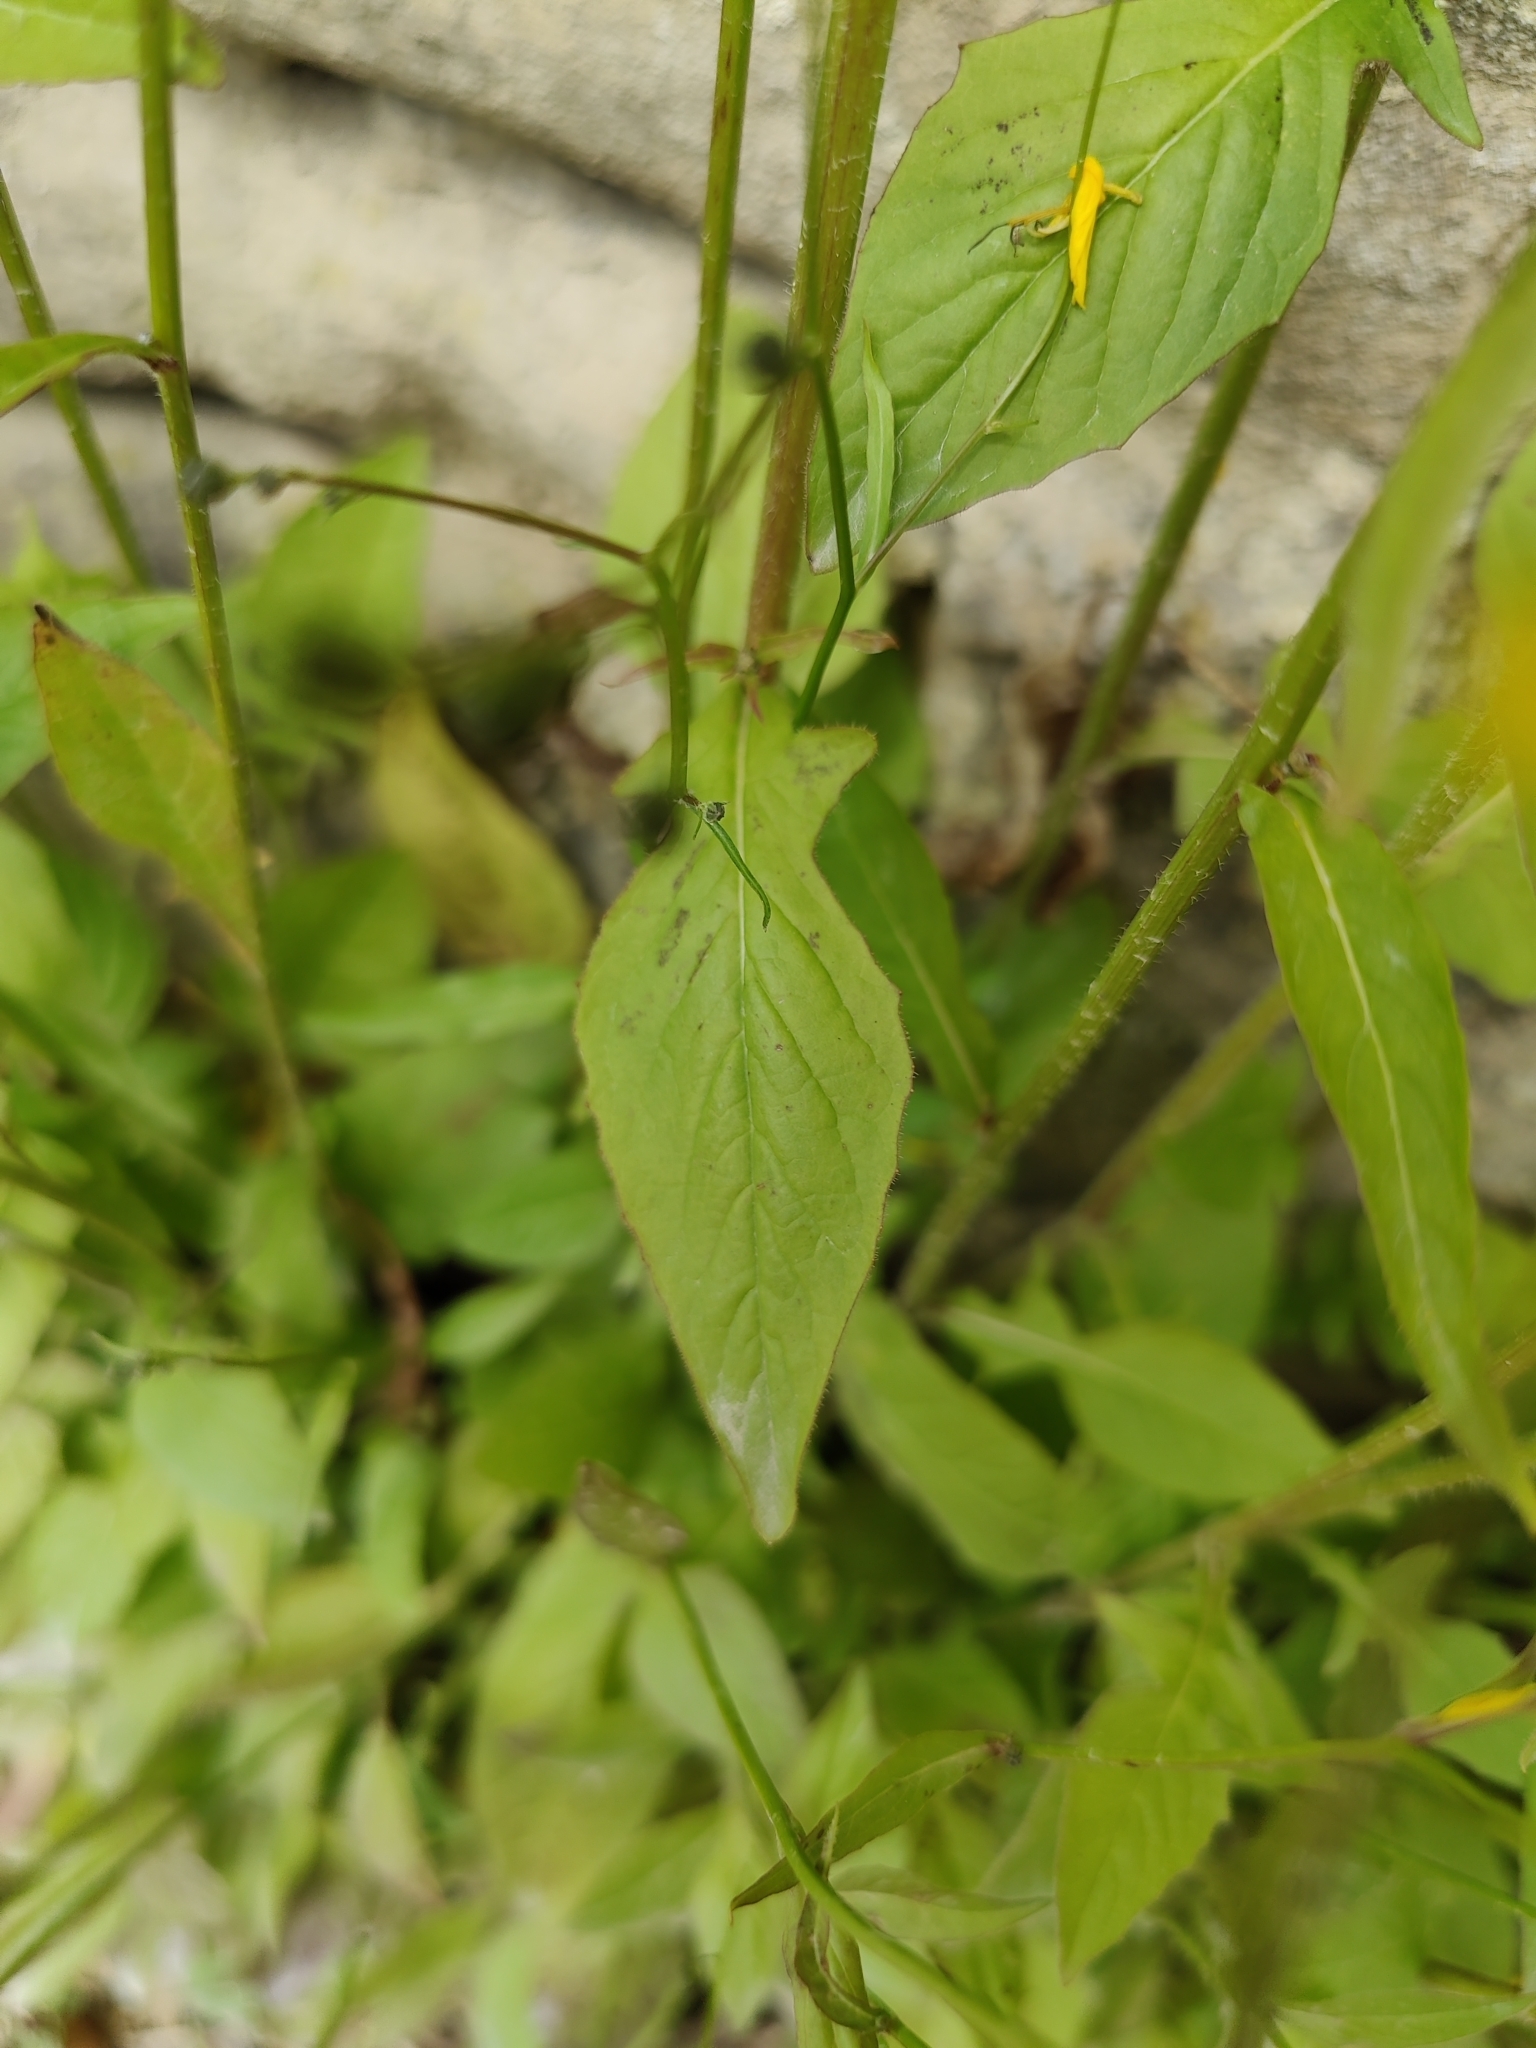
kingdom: Plantae
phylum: Tracheophyta
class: Magnoliopsida
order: Asterales
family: Asteraceae
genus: Lapsana
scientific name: Lapsana communis
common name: Nipplewort
